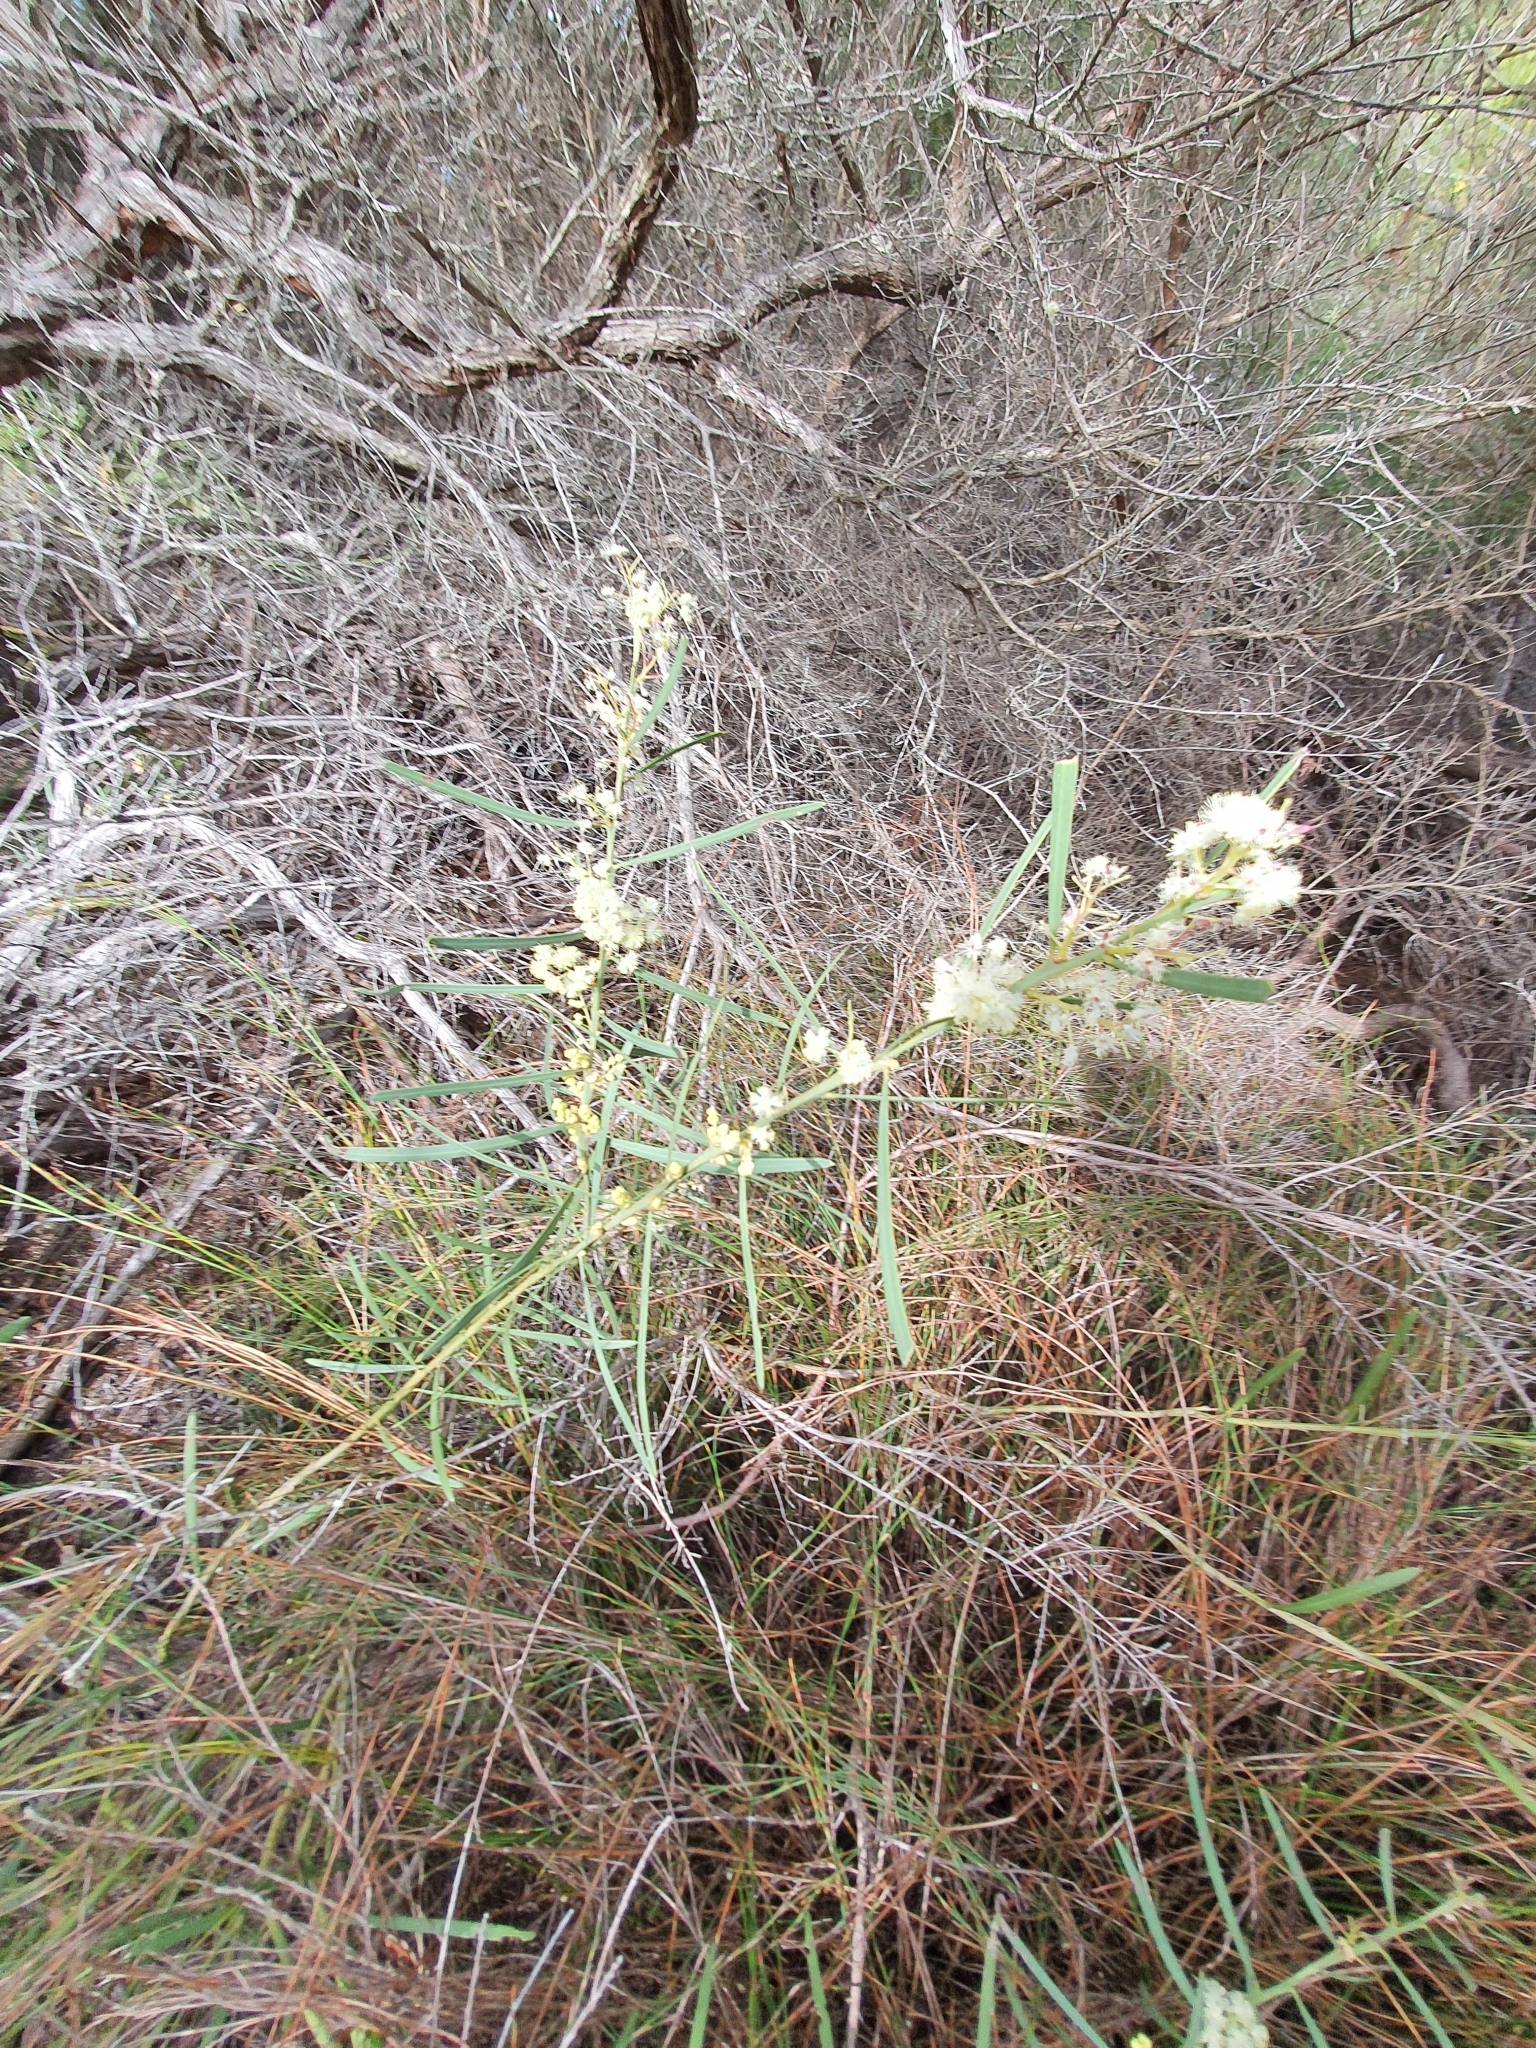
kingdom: Plantae
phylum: Tracheophyta
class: Magnoliopsida
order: Fabales
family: Fabaceae
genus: Acacia
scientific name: Acacia suaveolens
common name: Sweet acacia
